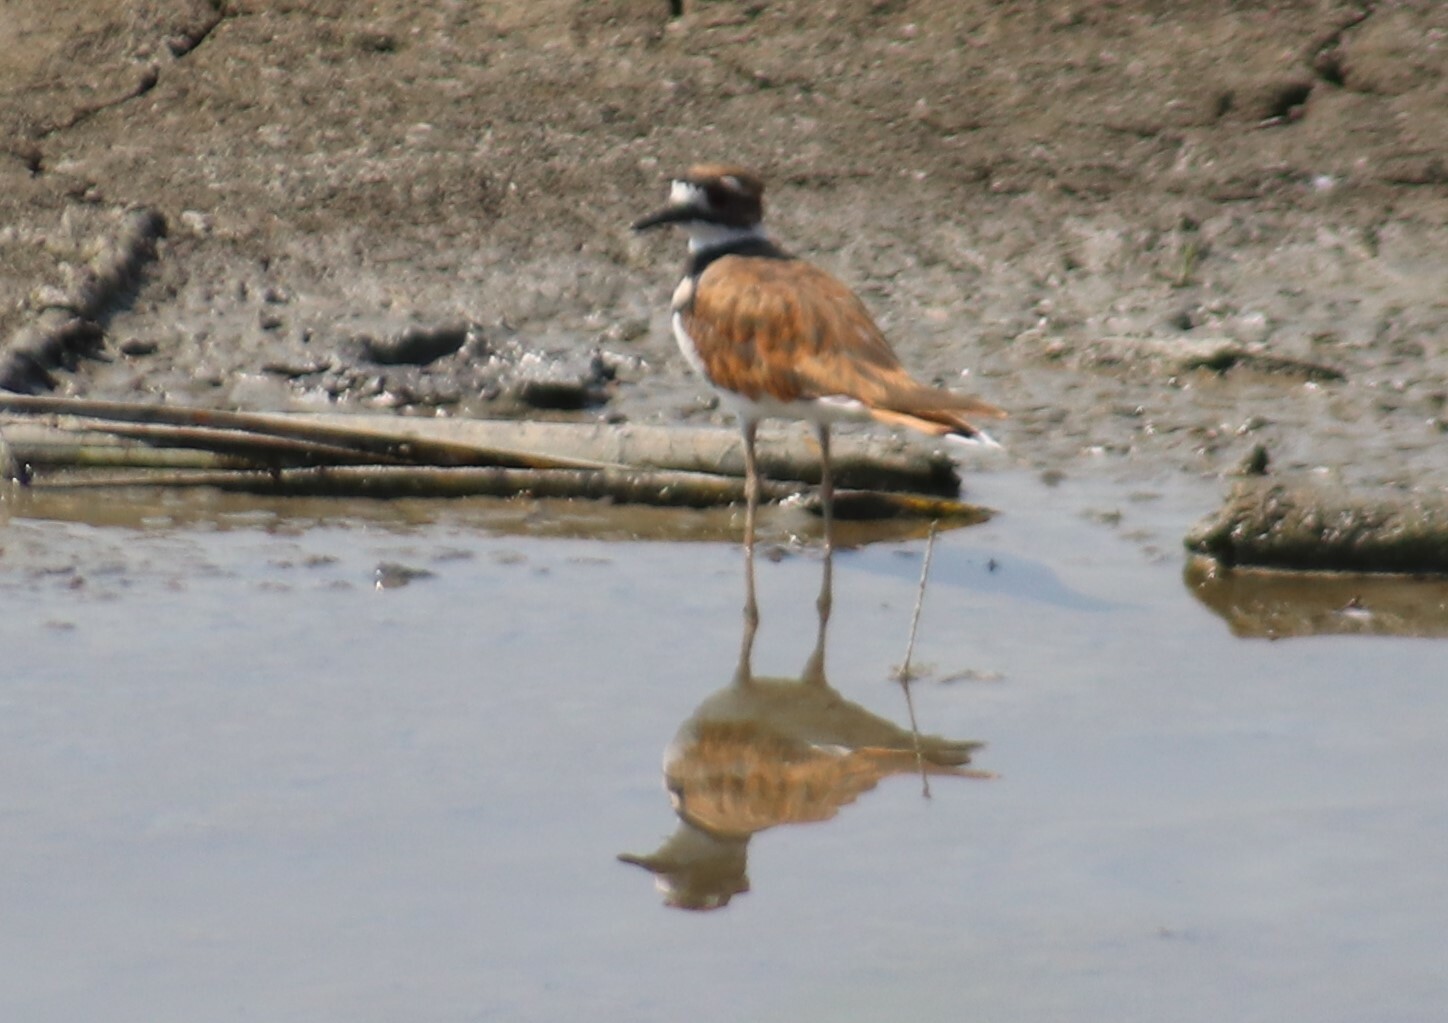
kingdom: Animalia
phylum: Chordata
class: Aves
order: Charadriiformes
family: Charadriidae
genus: Charadrius
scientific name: Charadrius vociferus
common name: Killdeer
